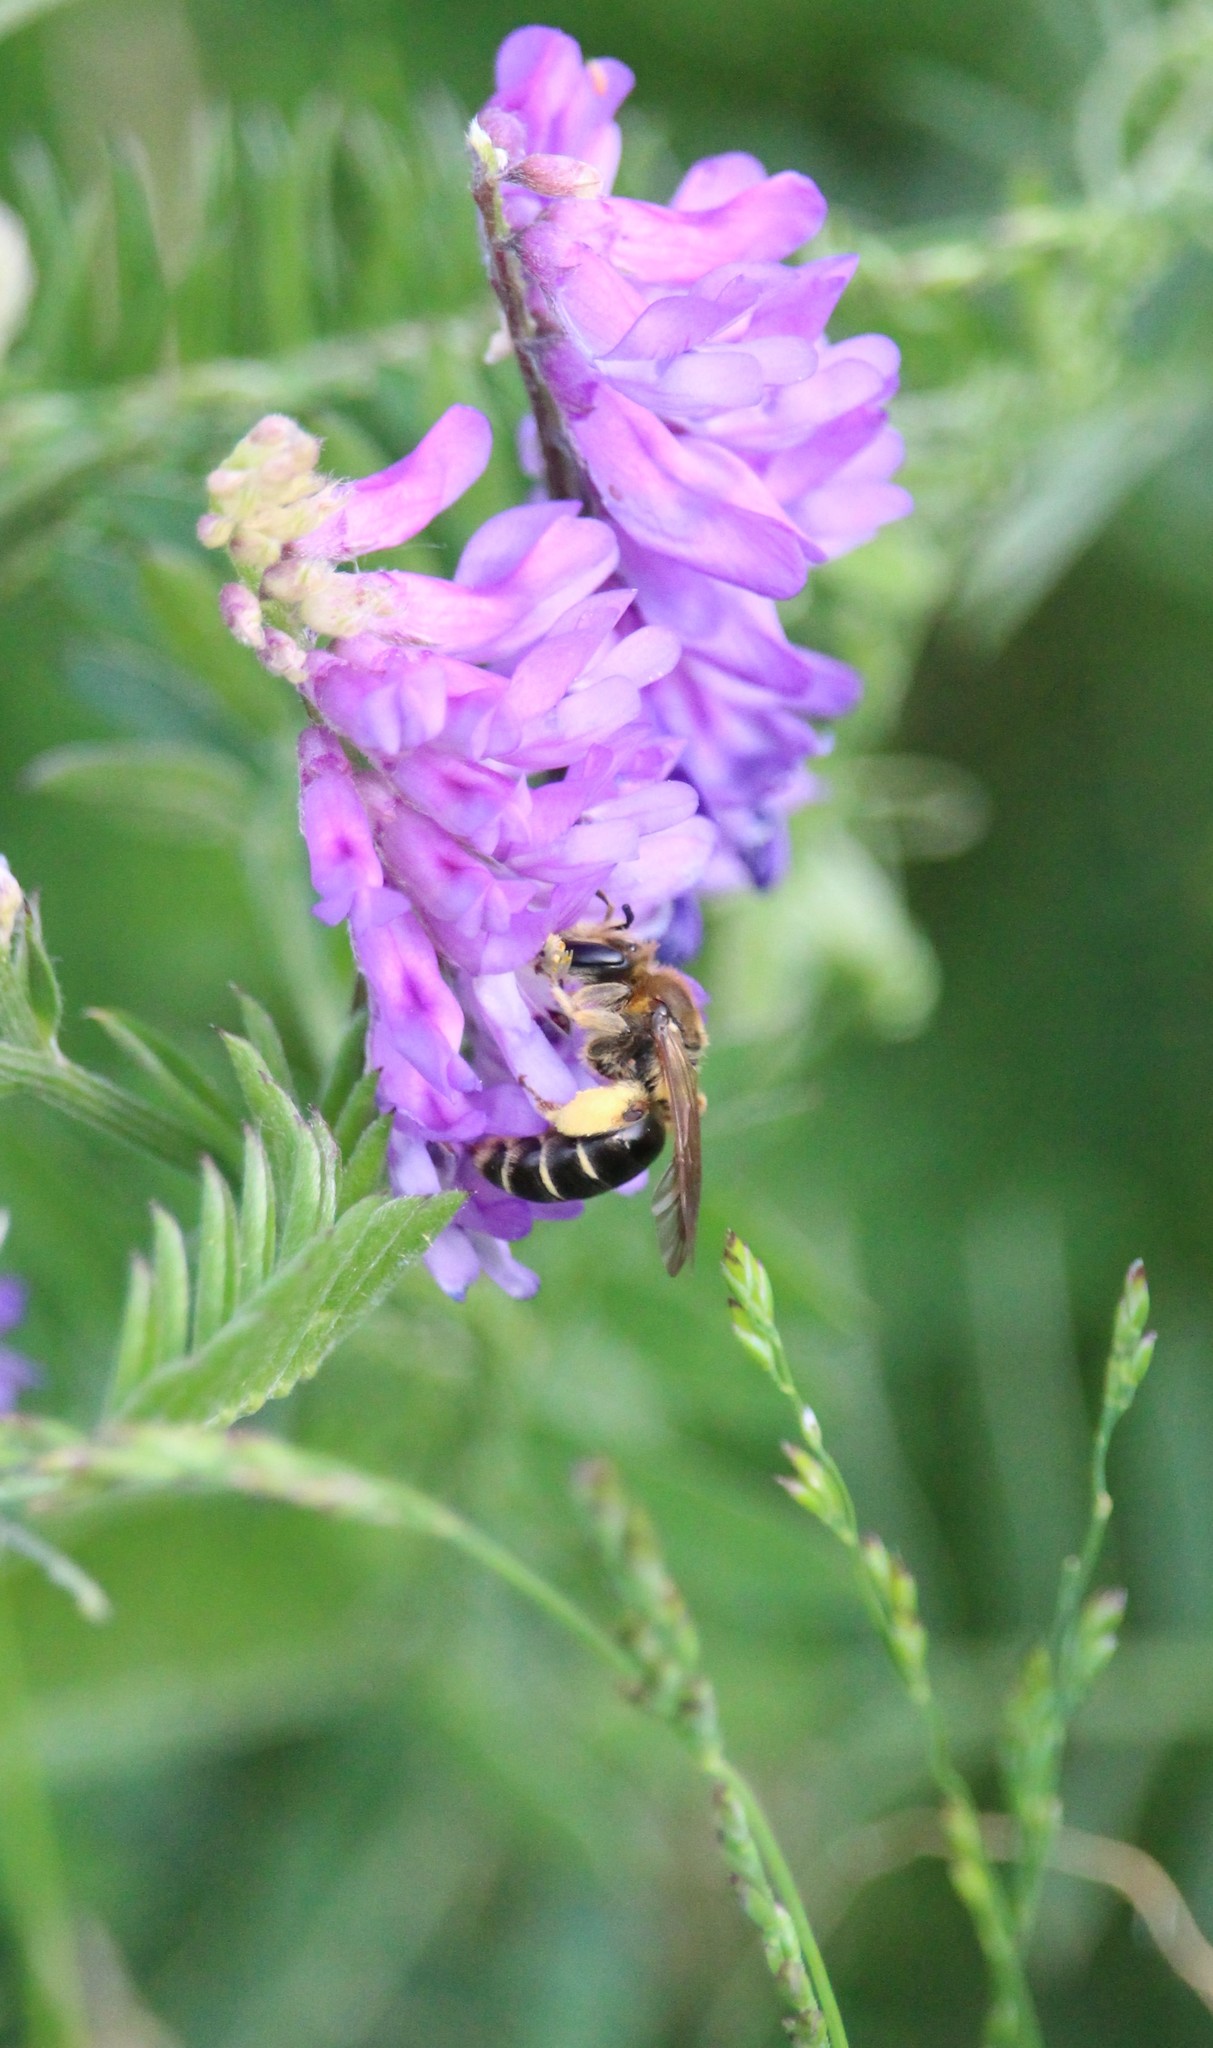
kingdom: Animalia
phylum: Arthropoda
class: Insecta
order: Hymenoptera
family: Andrenidae
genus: Andrena
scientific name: Andrena wilkella
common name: Wilke's mining bee
